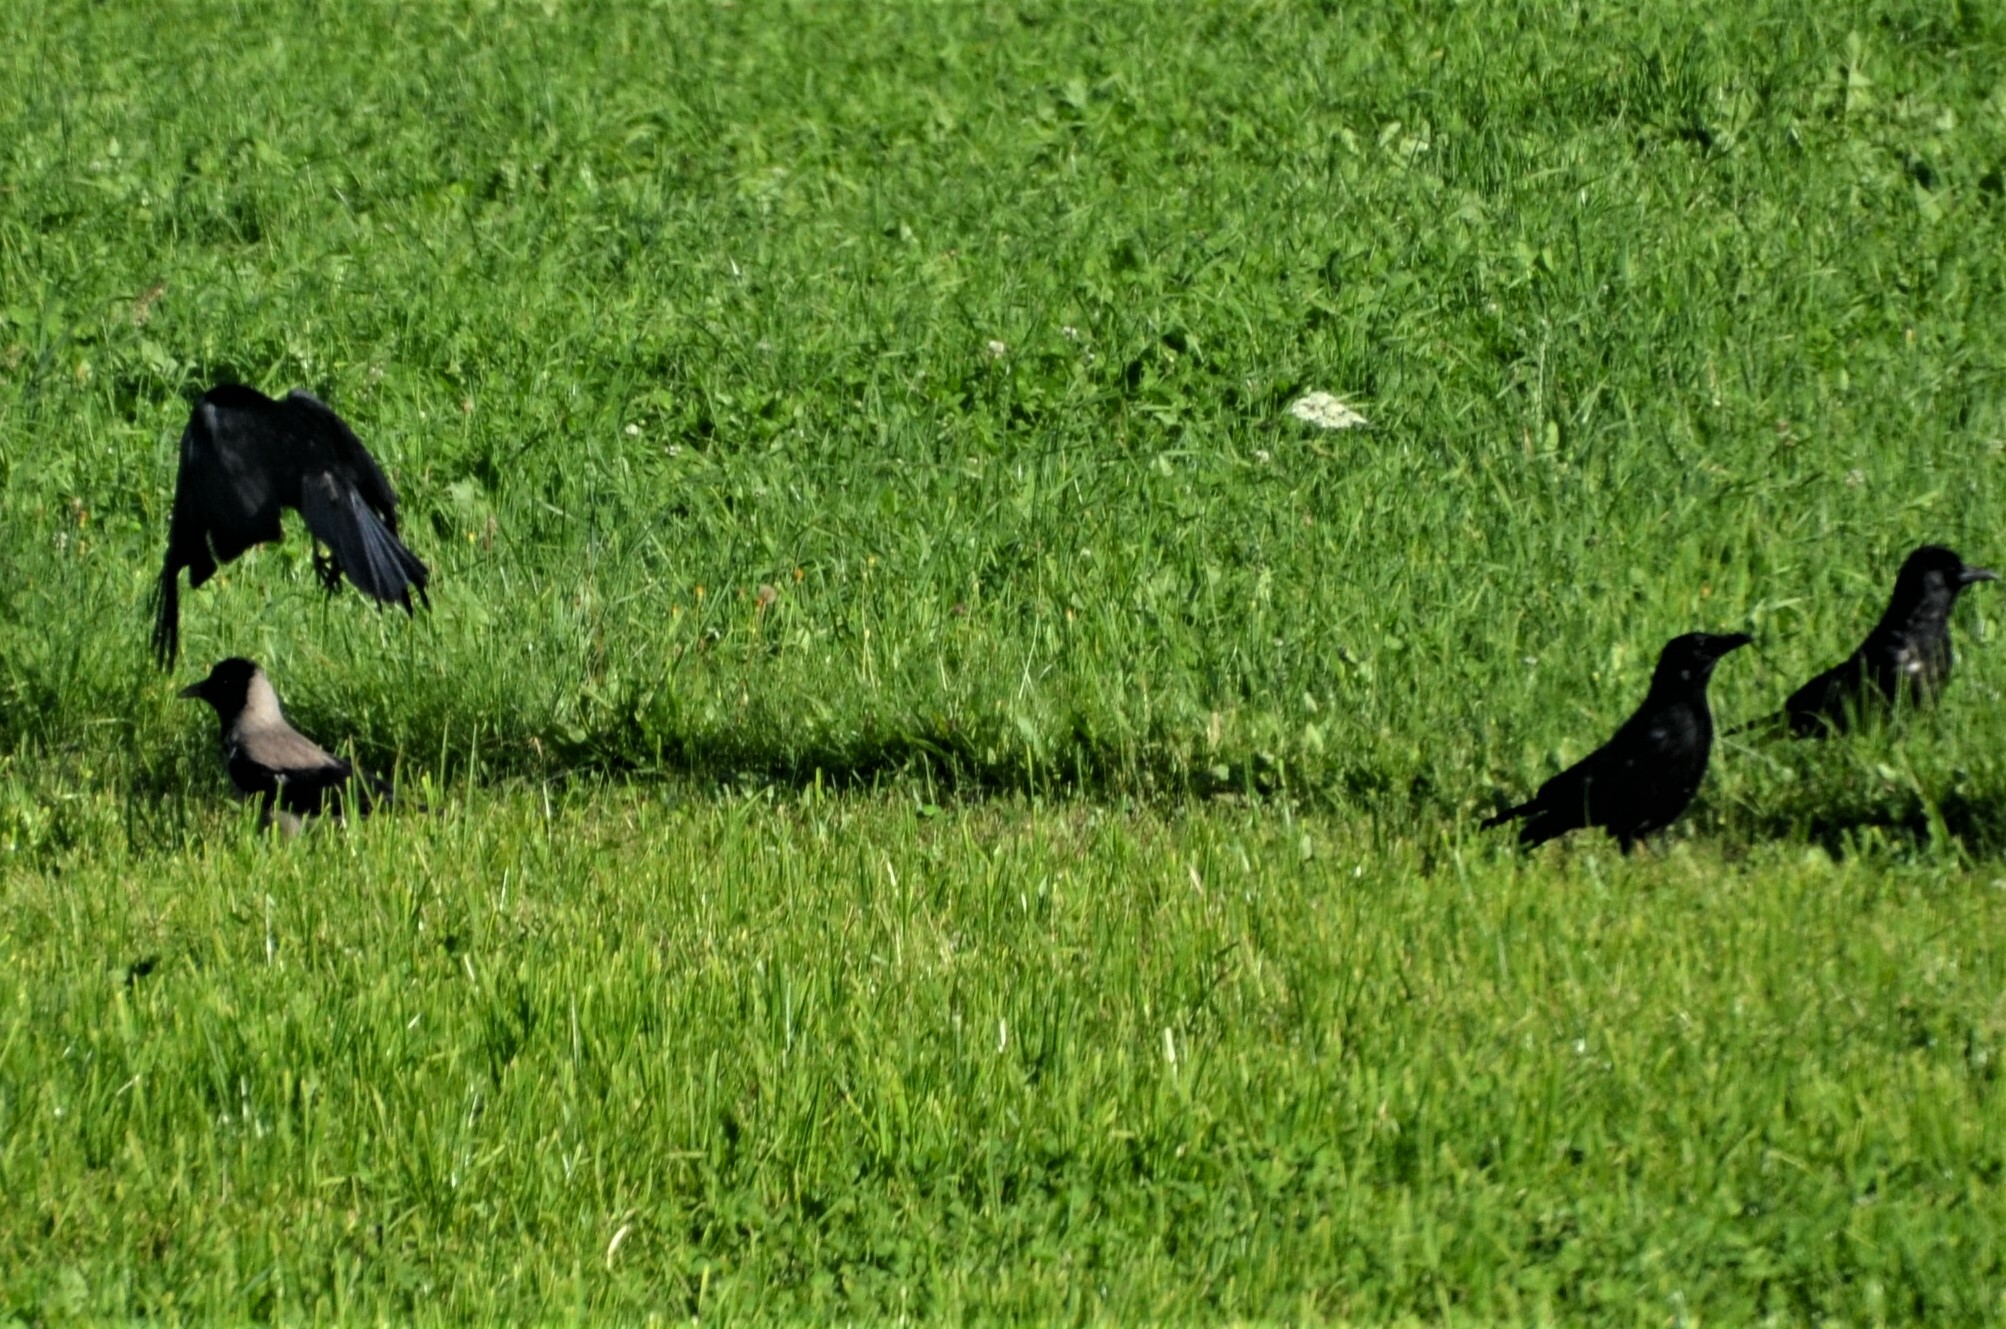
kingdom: Animalia
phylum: Chordata
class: Aves
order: Passeriformes
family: Corvidae
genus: Corvus
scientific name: Corvus
